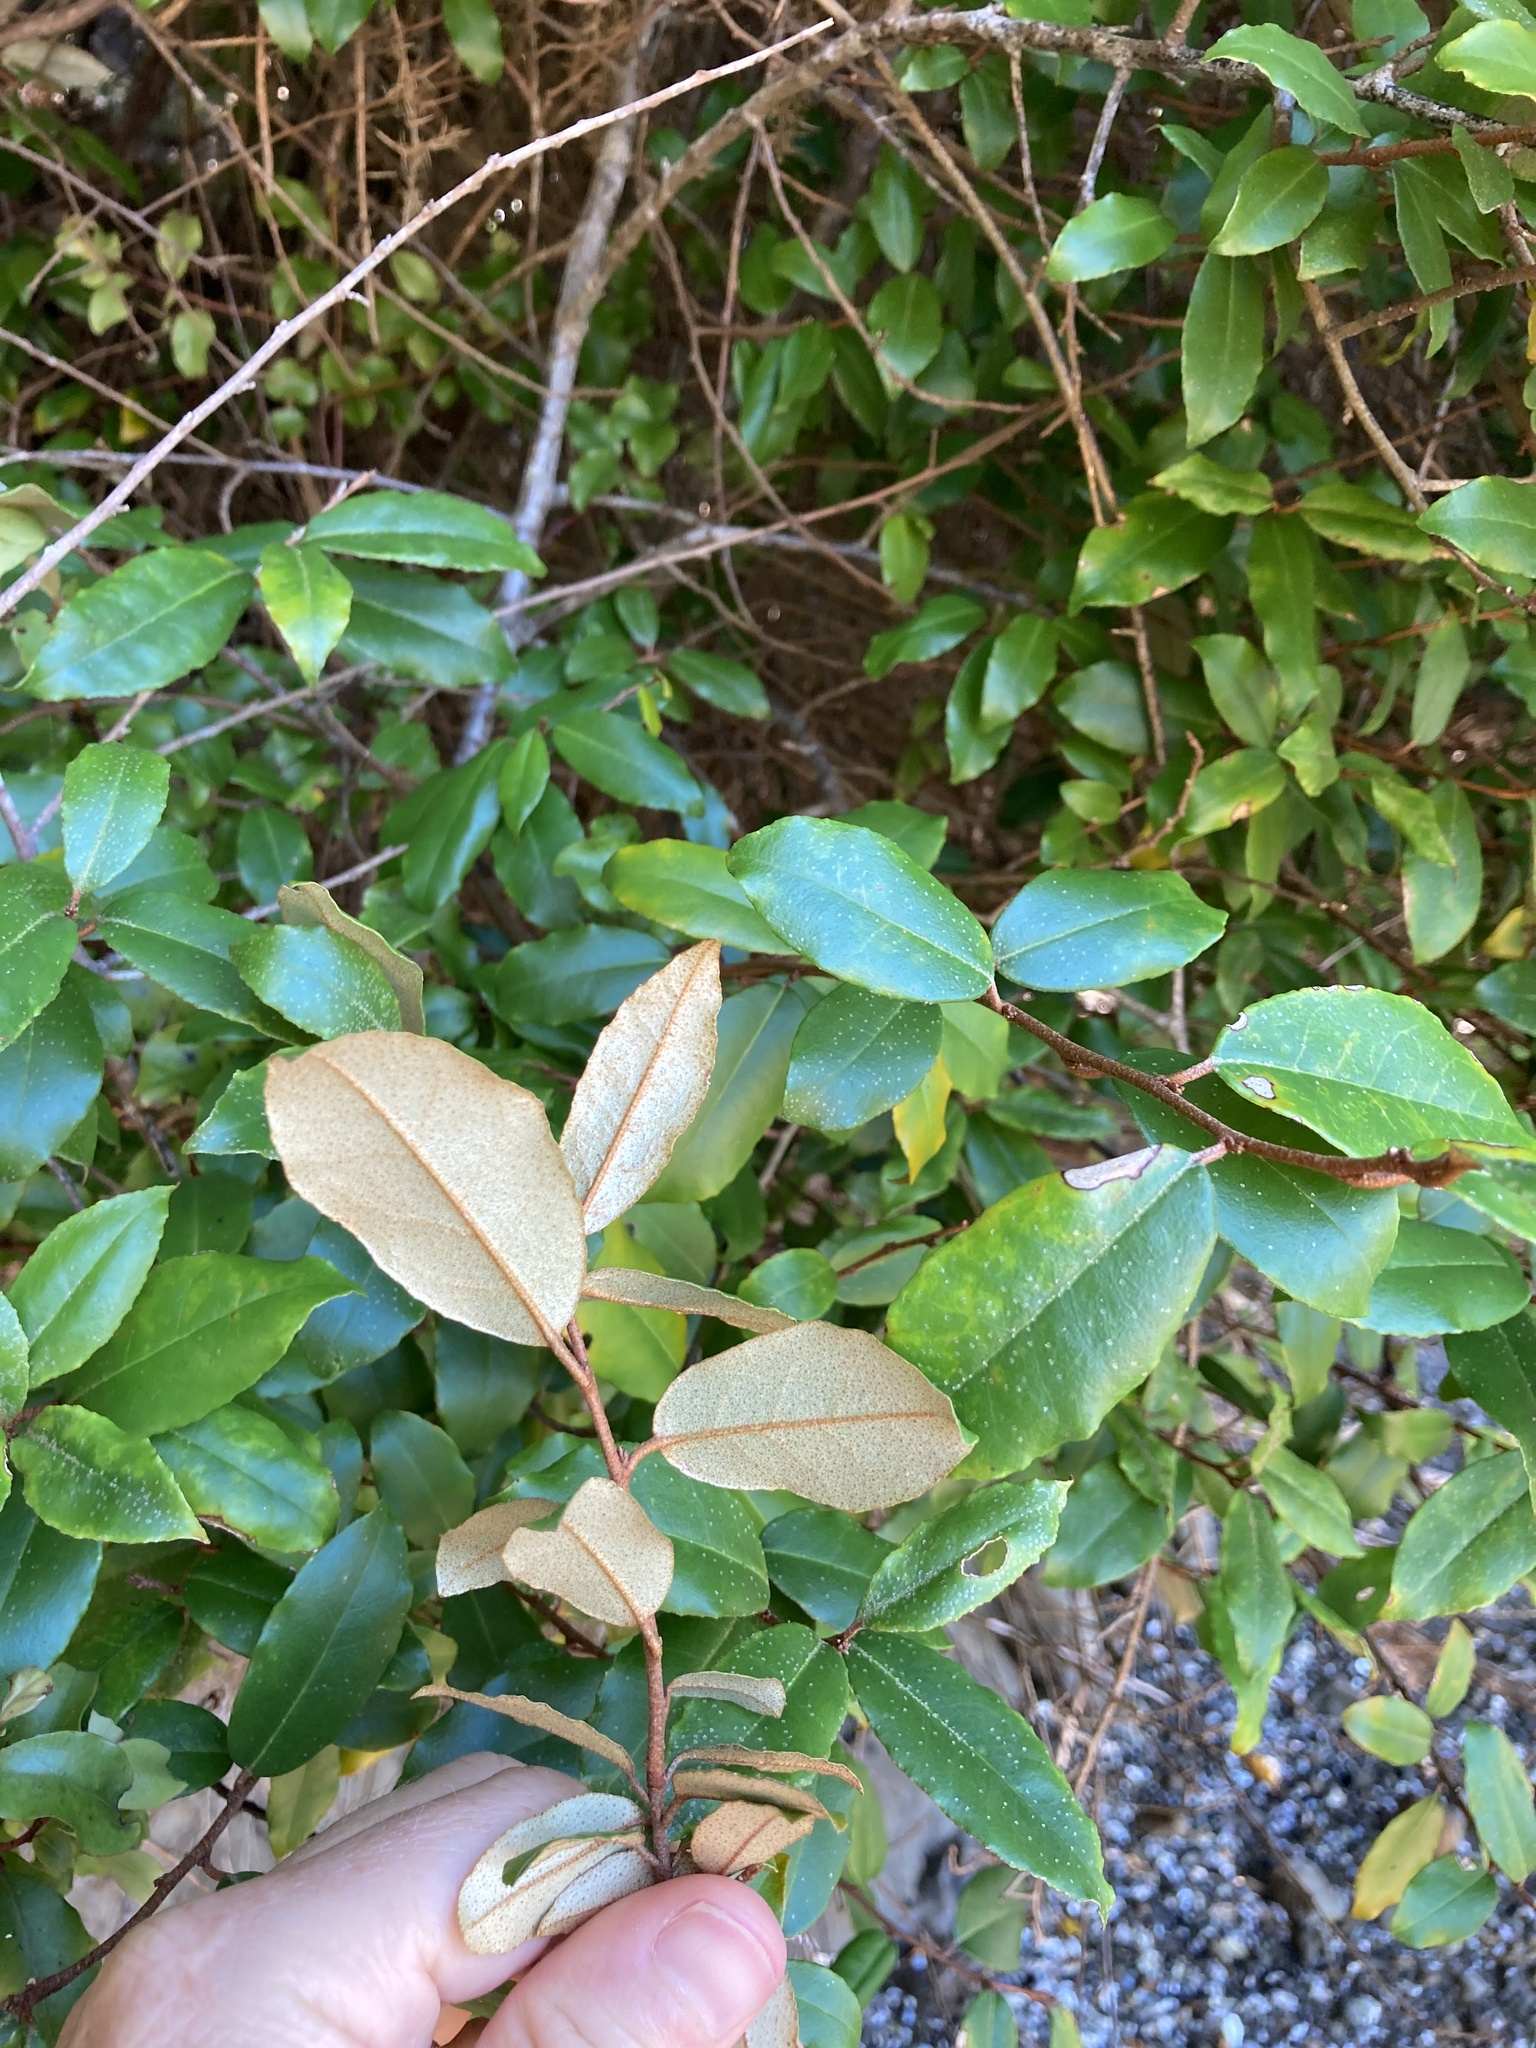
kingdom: Plantae
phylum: Tracheophyta
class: Magnoliopsida
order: Rosales
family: Elaeagnaceae
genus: Elaeagnus
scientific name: Elaeagnus reflexa
